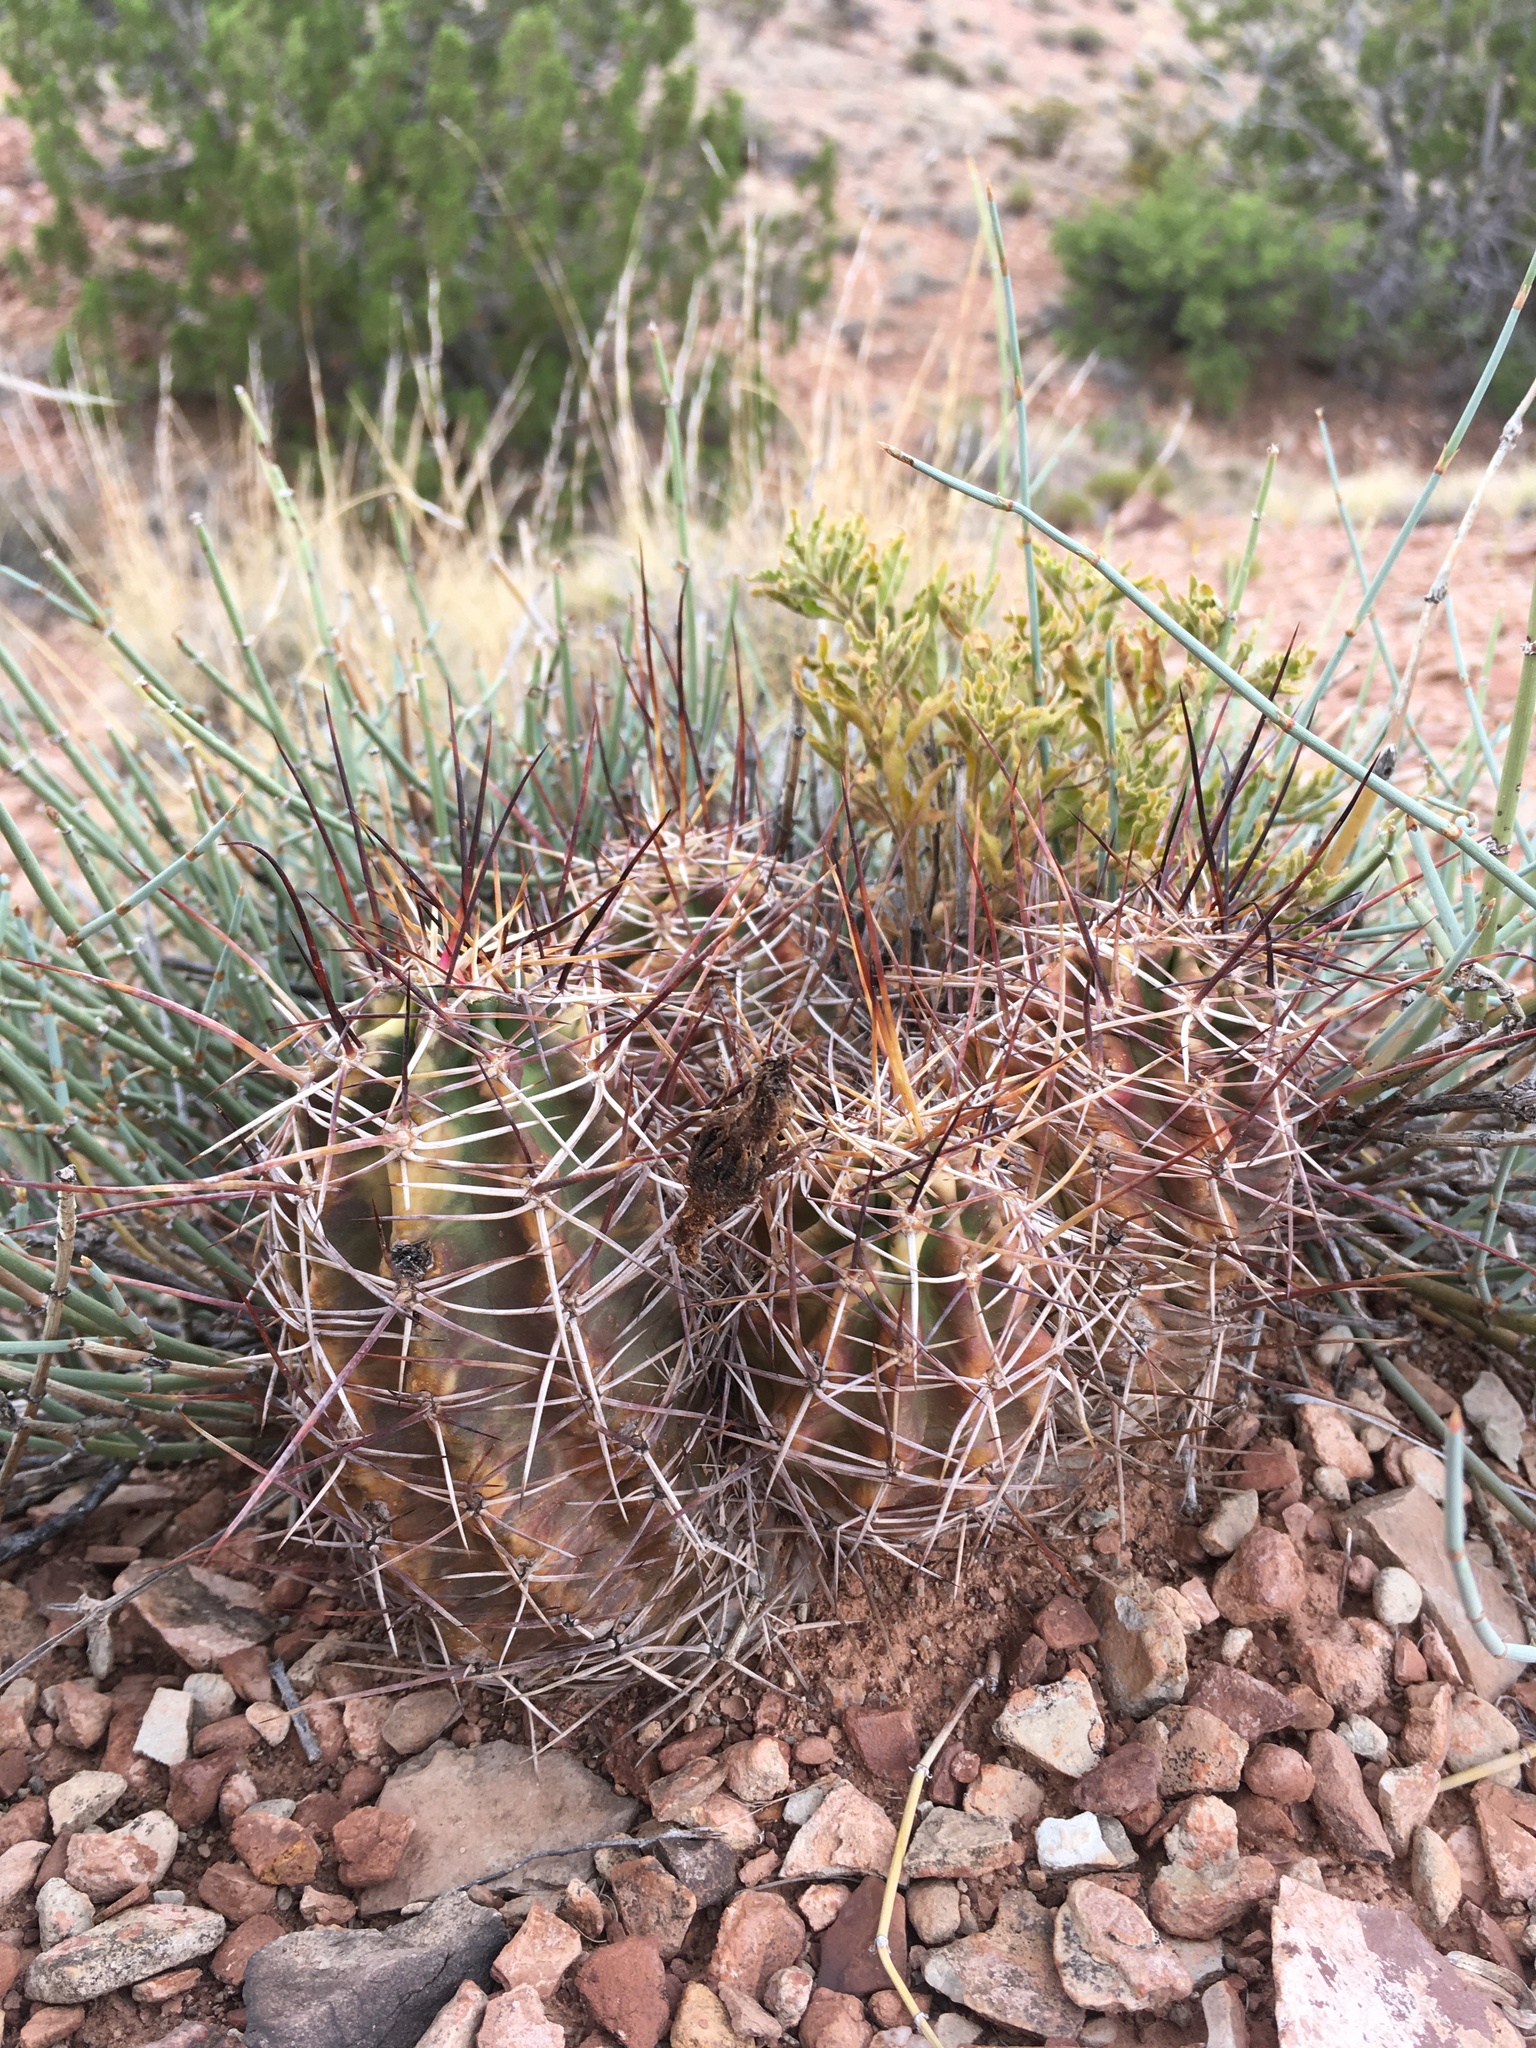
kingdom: Plantae
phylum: Tracheophyta
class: Magnoliopsida
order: Caryophyllales
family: Cactaceae
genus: Echinocereus
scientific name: Echinocereus fendleri
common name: Fendler's hedgehog cactus
